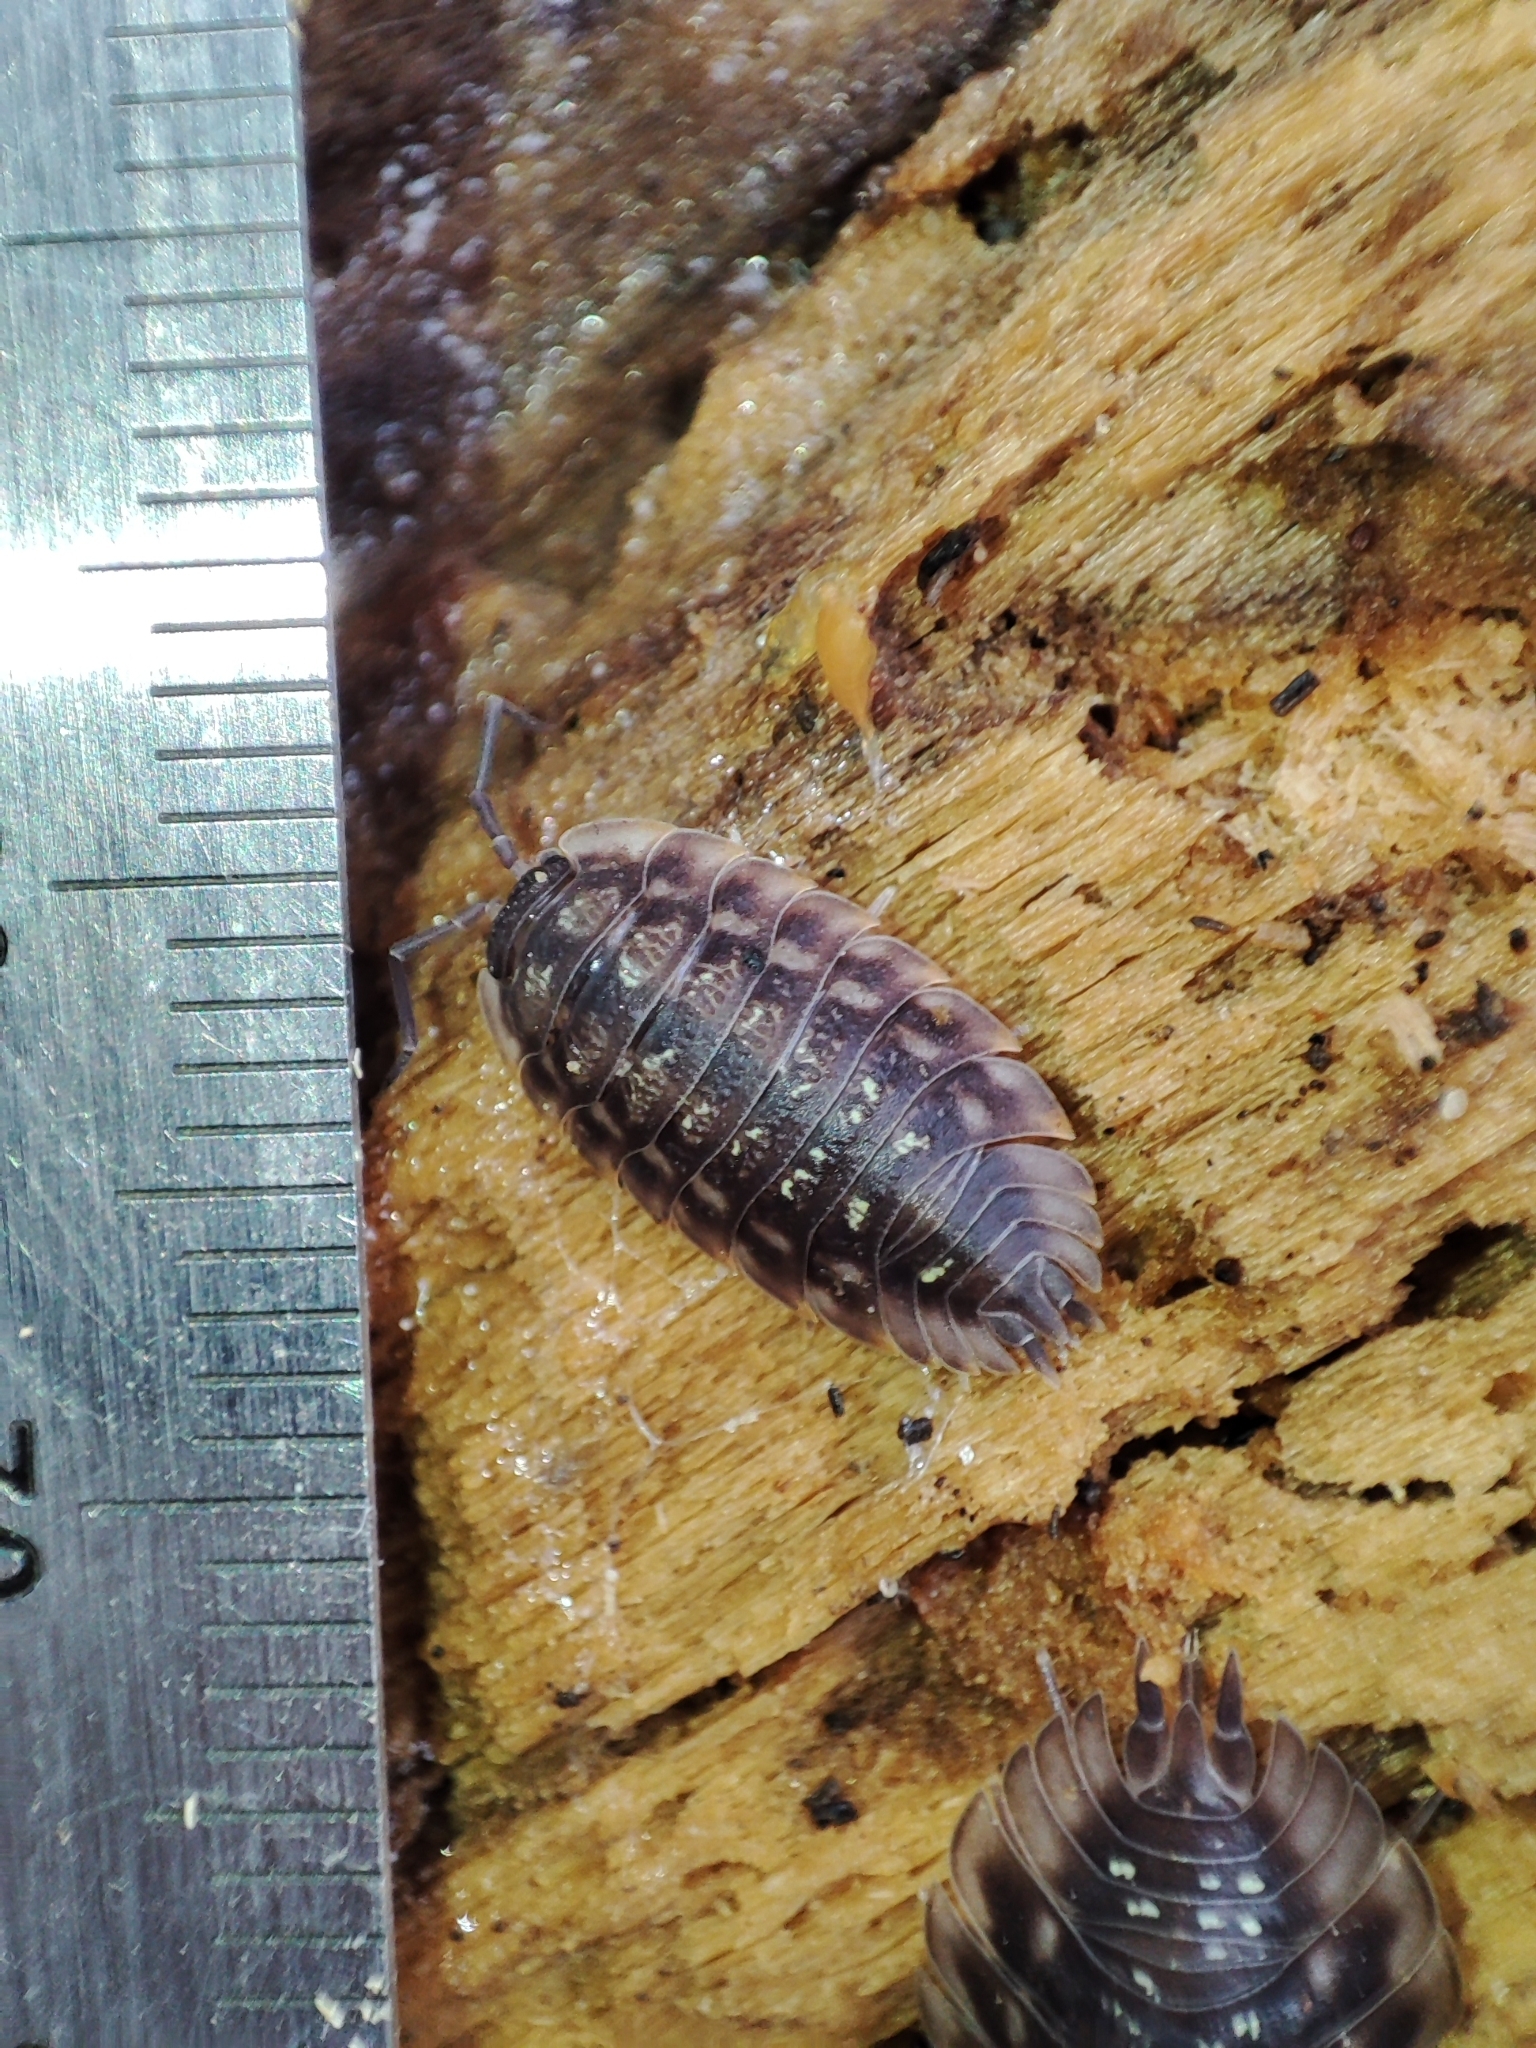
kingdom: Animalia
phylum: Arthropoda
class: Malacostraca
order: Isopoda
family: Oniscidae
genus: Oniscus
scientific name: Oniscus asellus
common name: Common shiny woodlouse
